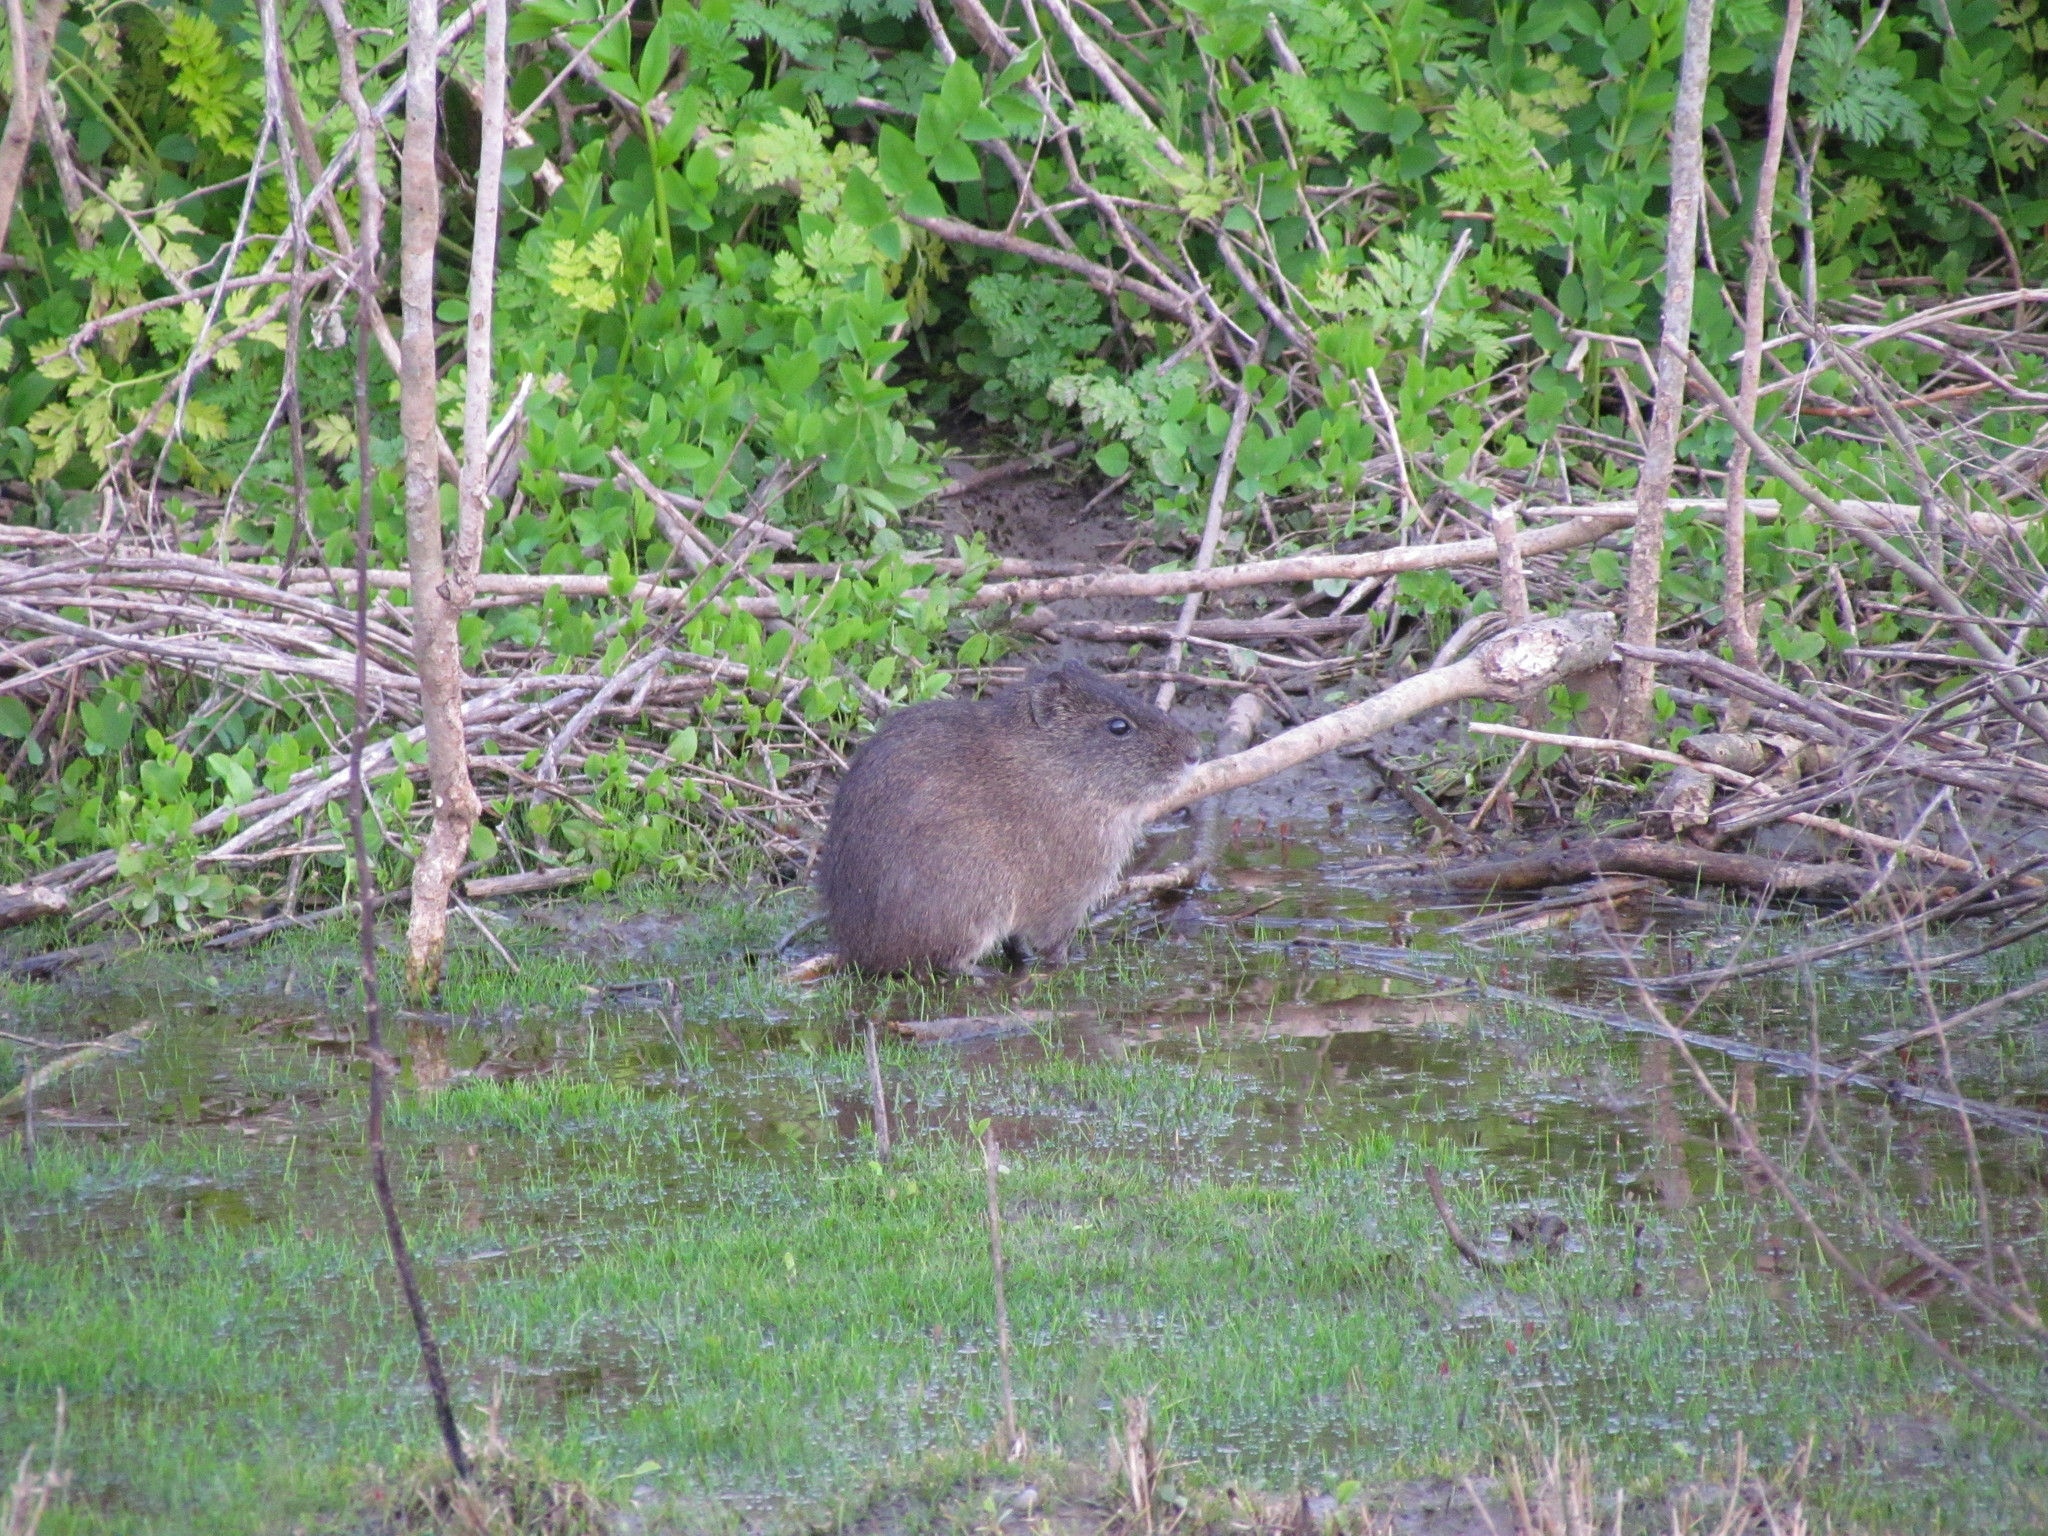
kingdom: Animalia
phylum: Chordata
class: Mammalia
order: Rodentia
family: Caviidae
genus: Cavia
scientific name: Cavia aperea
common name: Brazilian guinea pig
